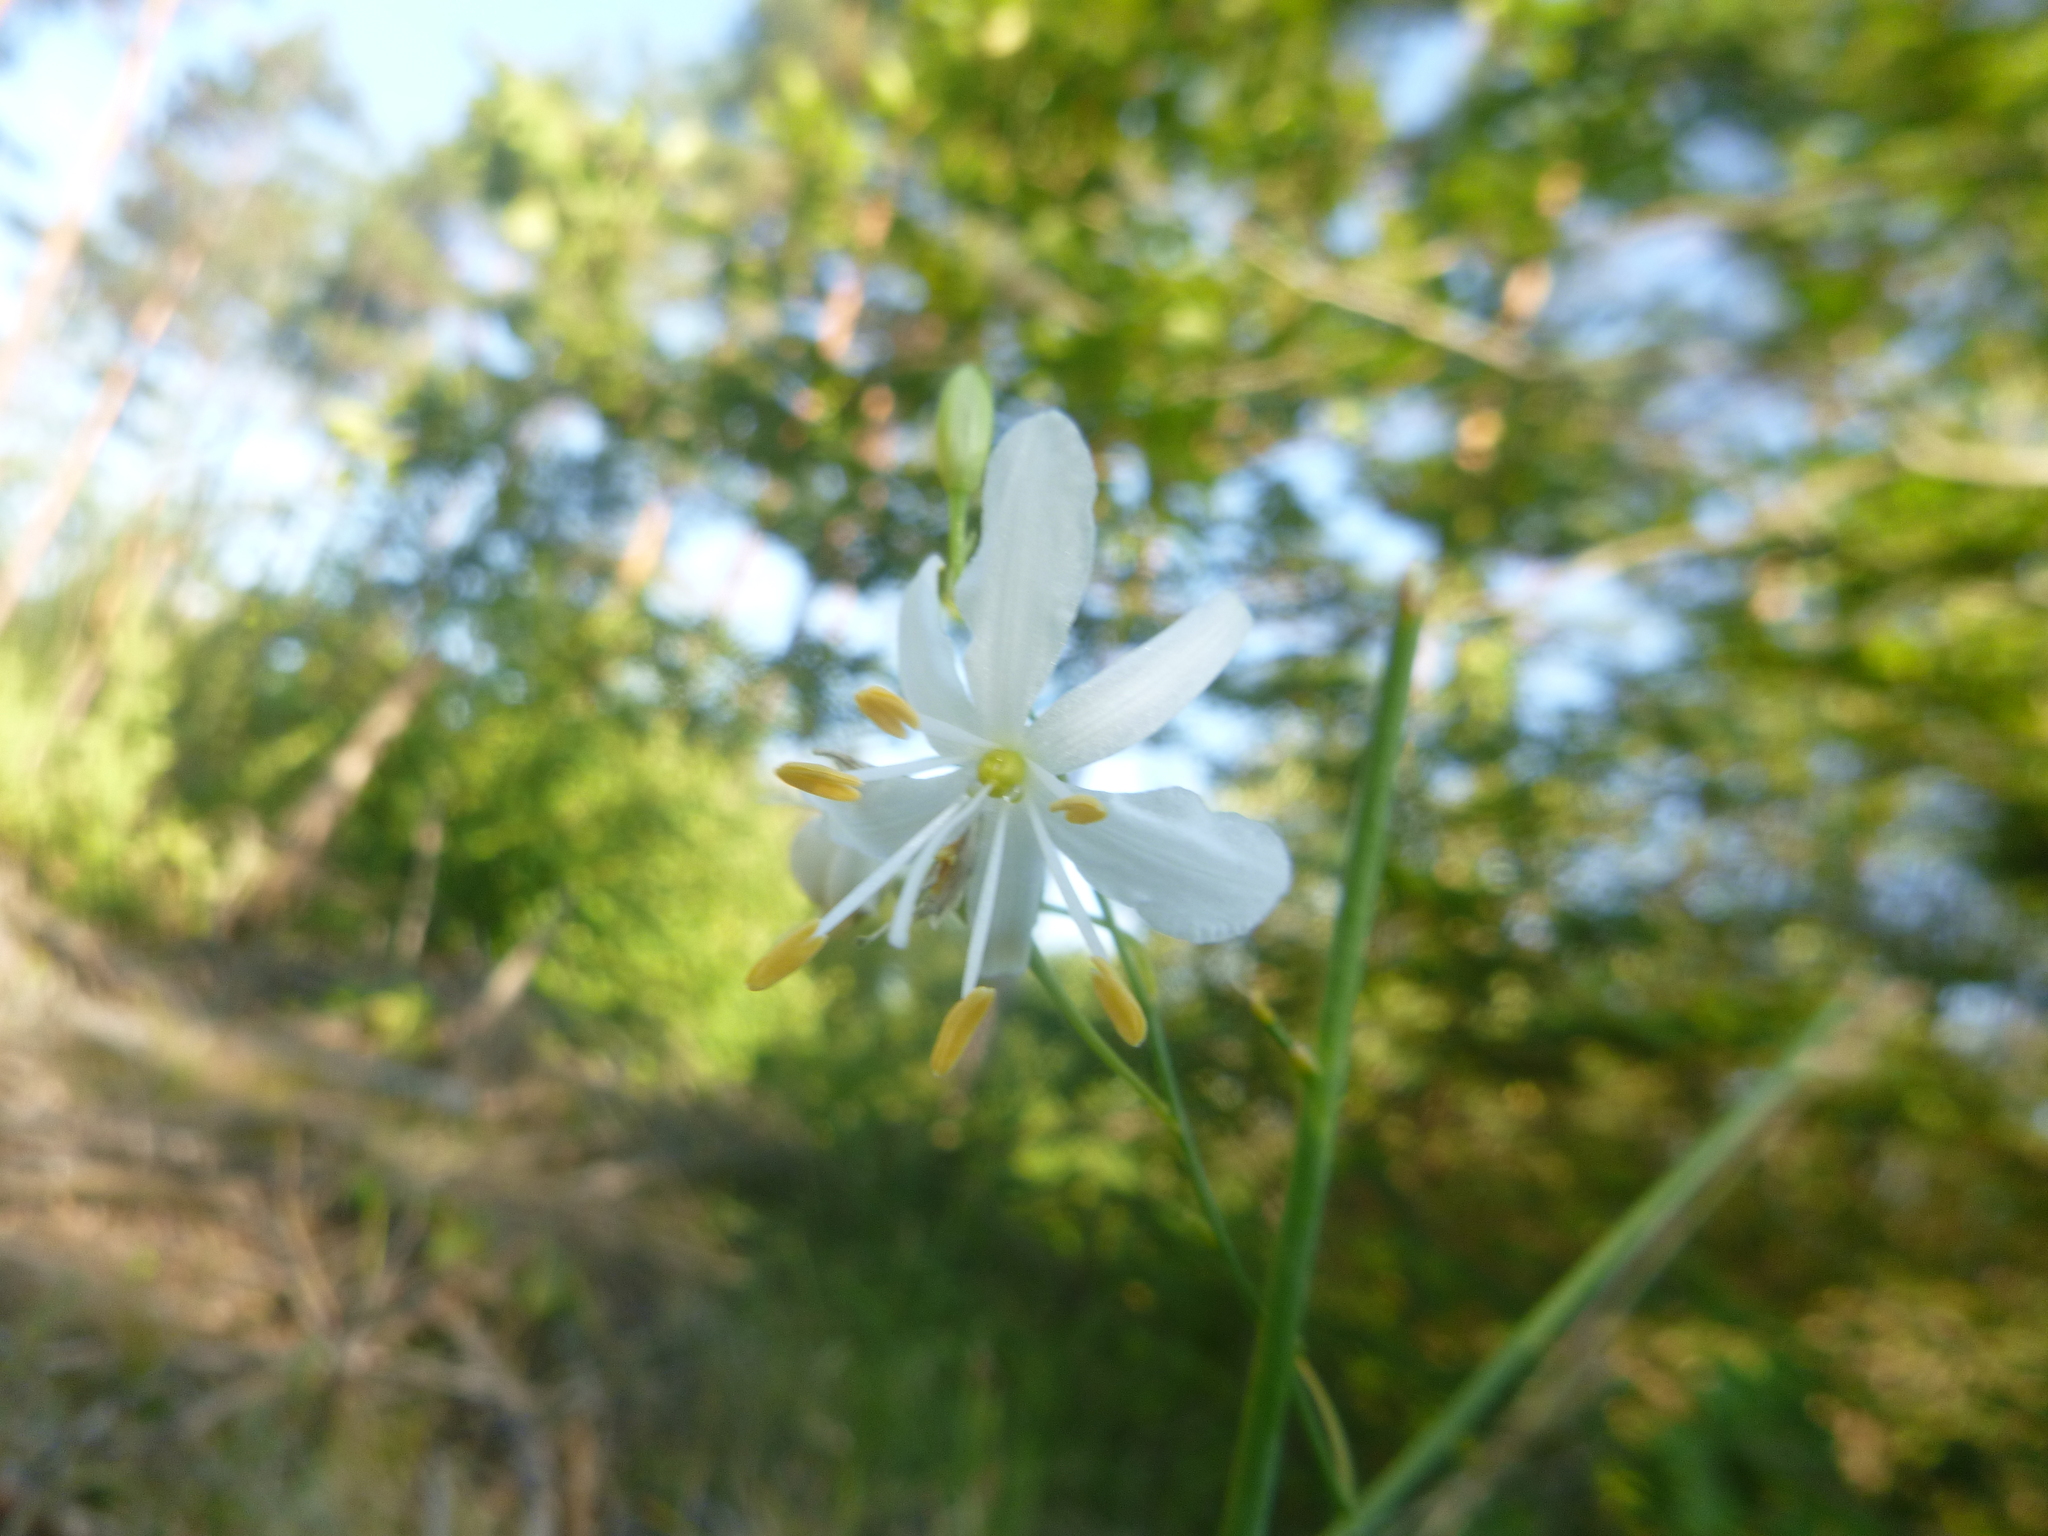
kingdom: Plantae
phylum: Tracheophyta
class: Liliopsida
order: Asparagales
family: Asparagaceae
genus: Anthericum
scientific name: Anthericum ramosum
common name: Branched st. bernard's-lily
